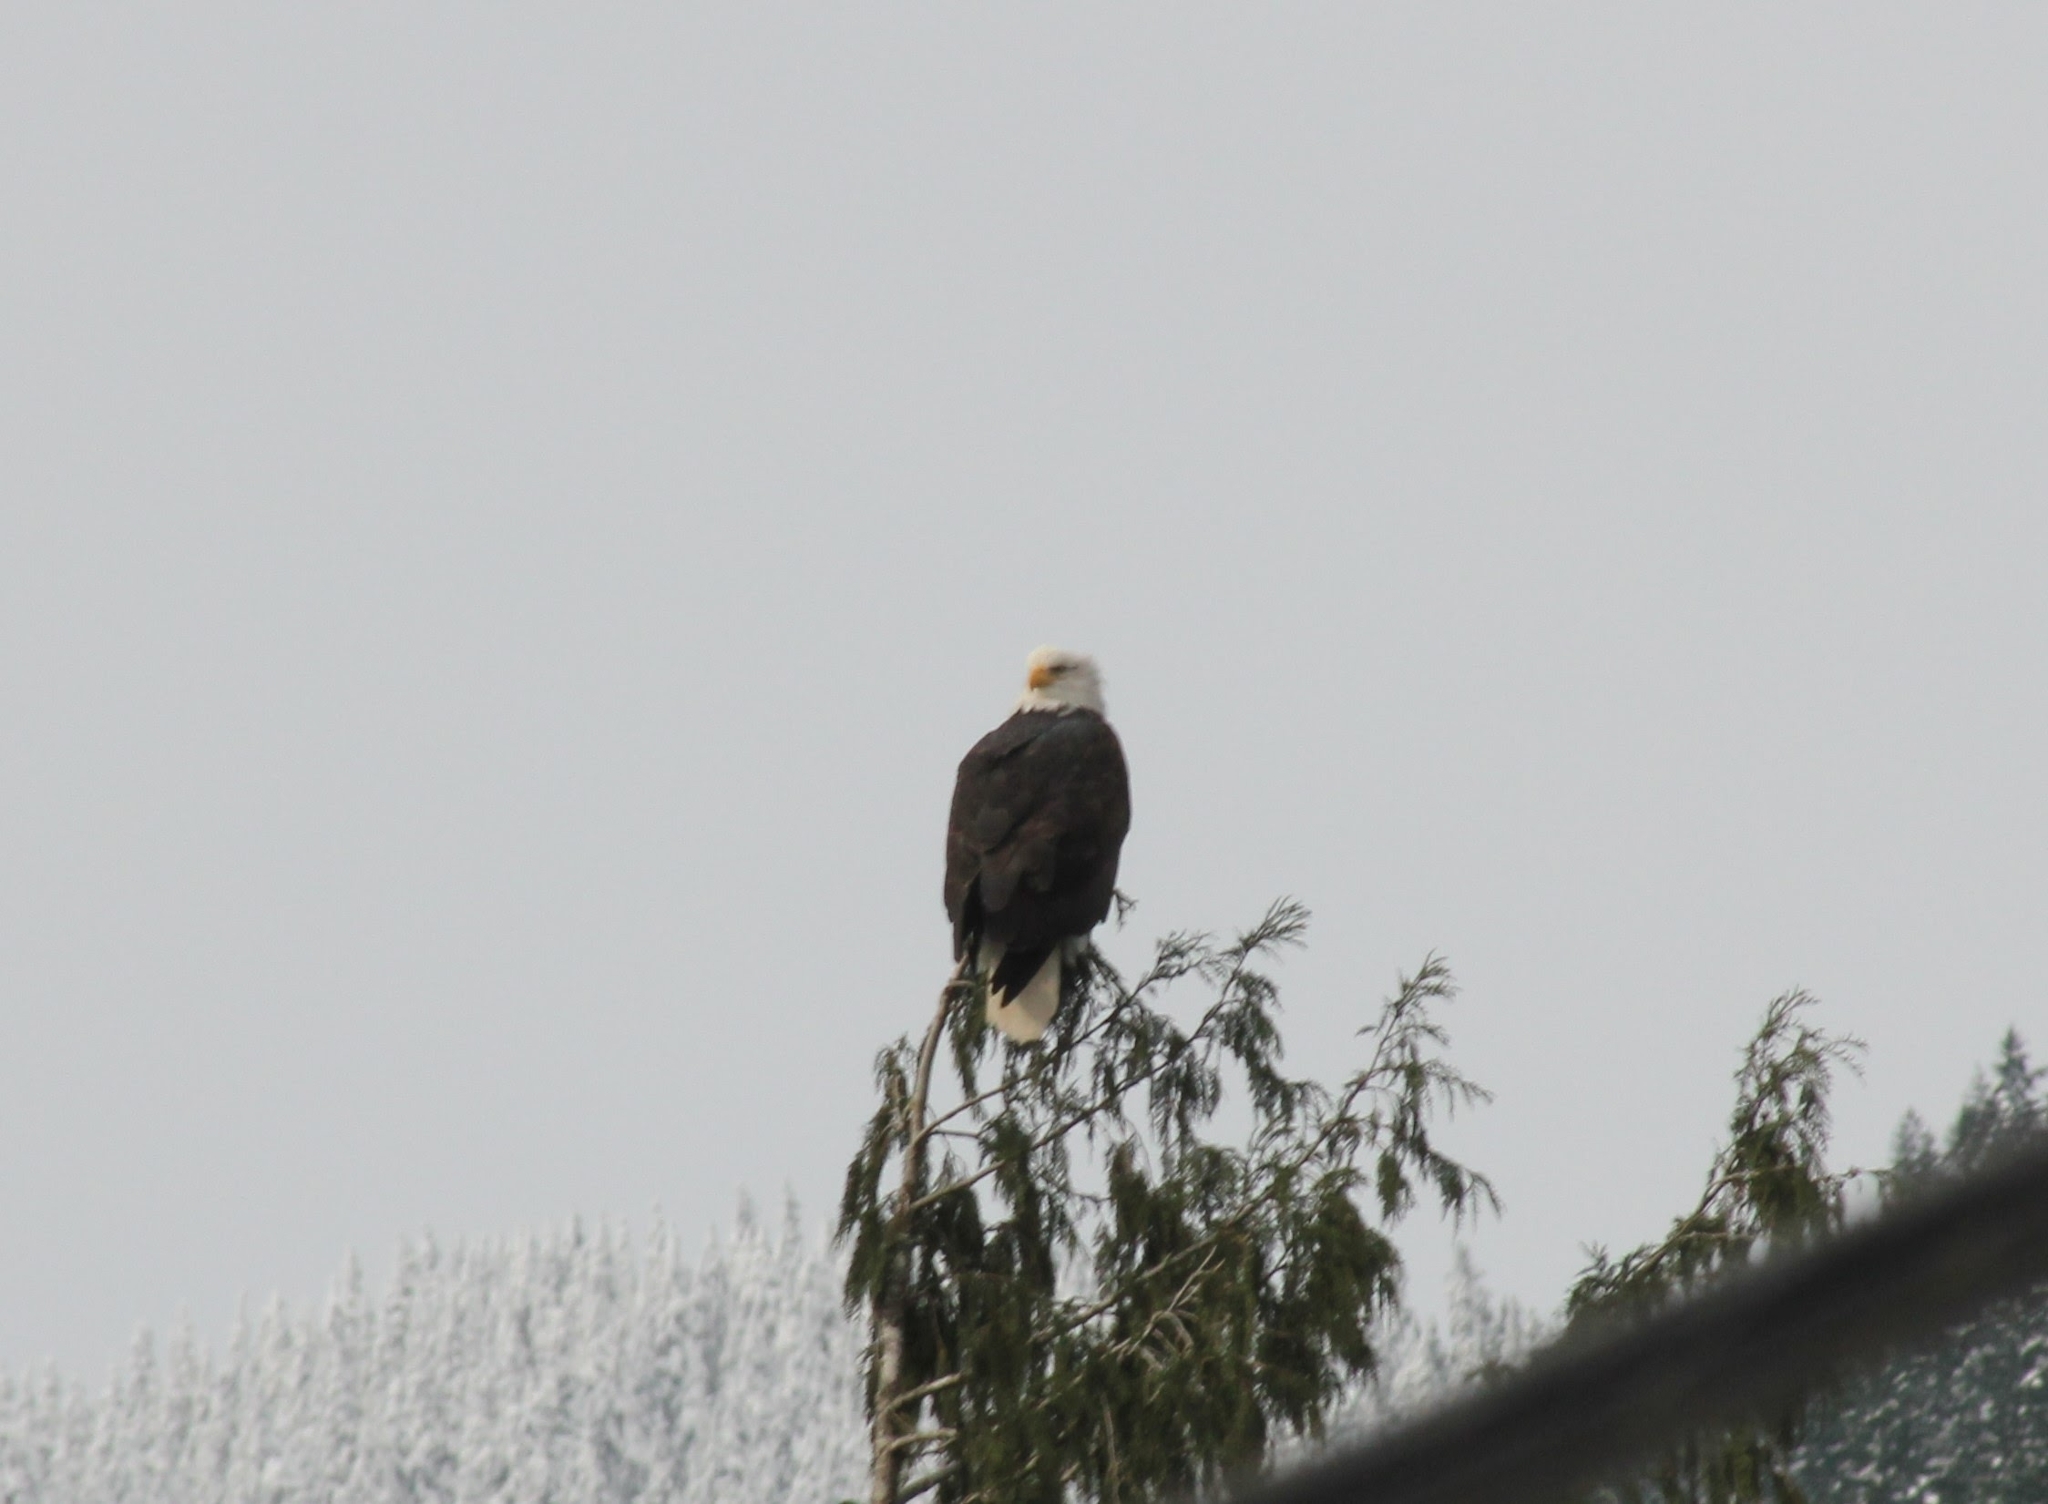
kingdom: Animalia
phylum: Chordata
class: Aves
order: Accipitriformes
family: Accipitridae
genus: Haliaeetus
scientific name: Haliaeetus leucocephalus
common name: Bald eagle
